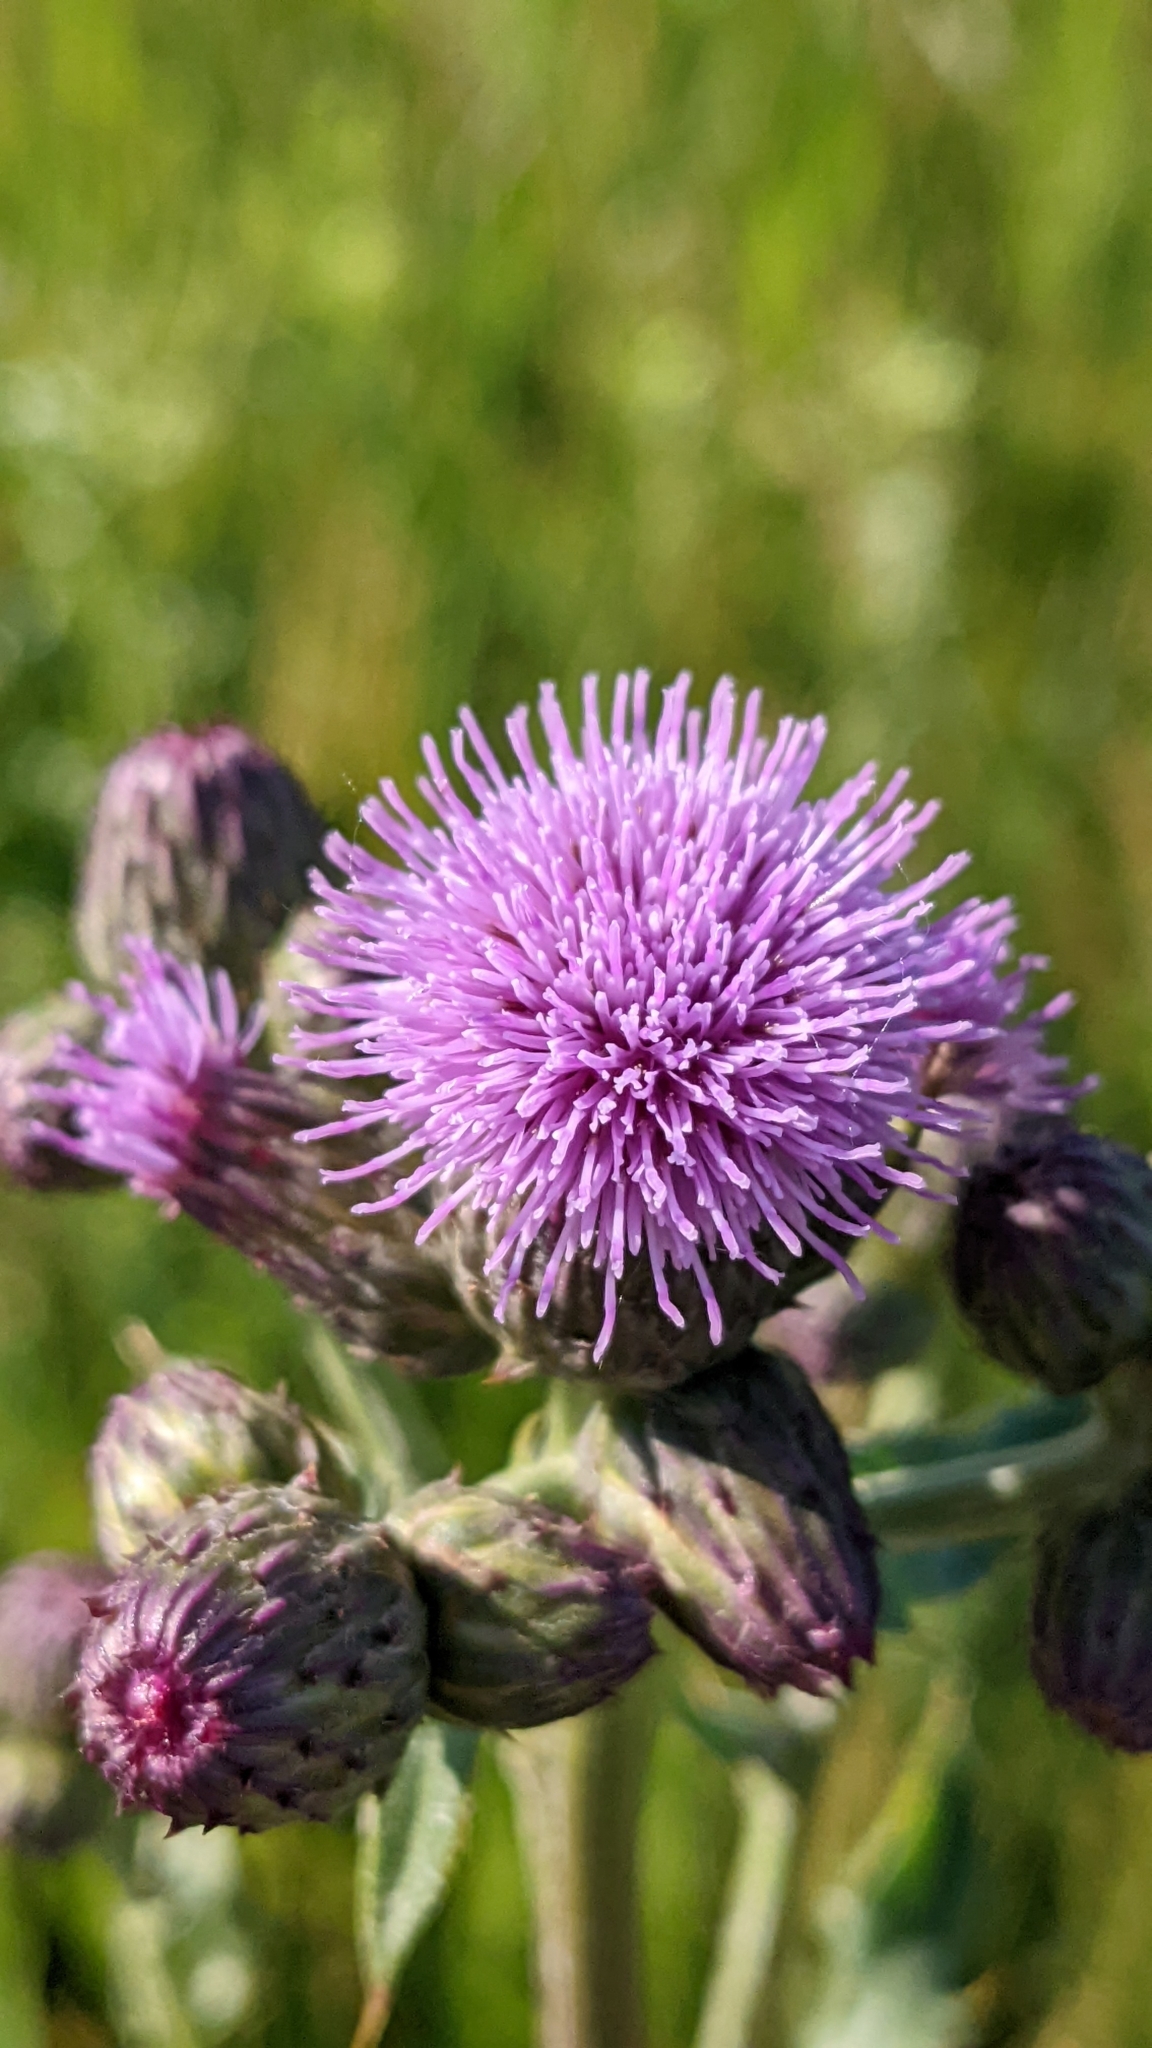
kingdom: Plantae
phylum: Tracheophyta
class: Magnoliopsida
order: Asterales
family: Asteraceae
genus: Cirsium
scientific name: Cirsium arvense
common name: Creeping thistle
